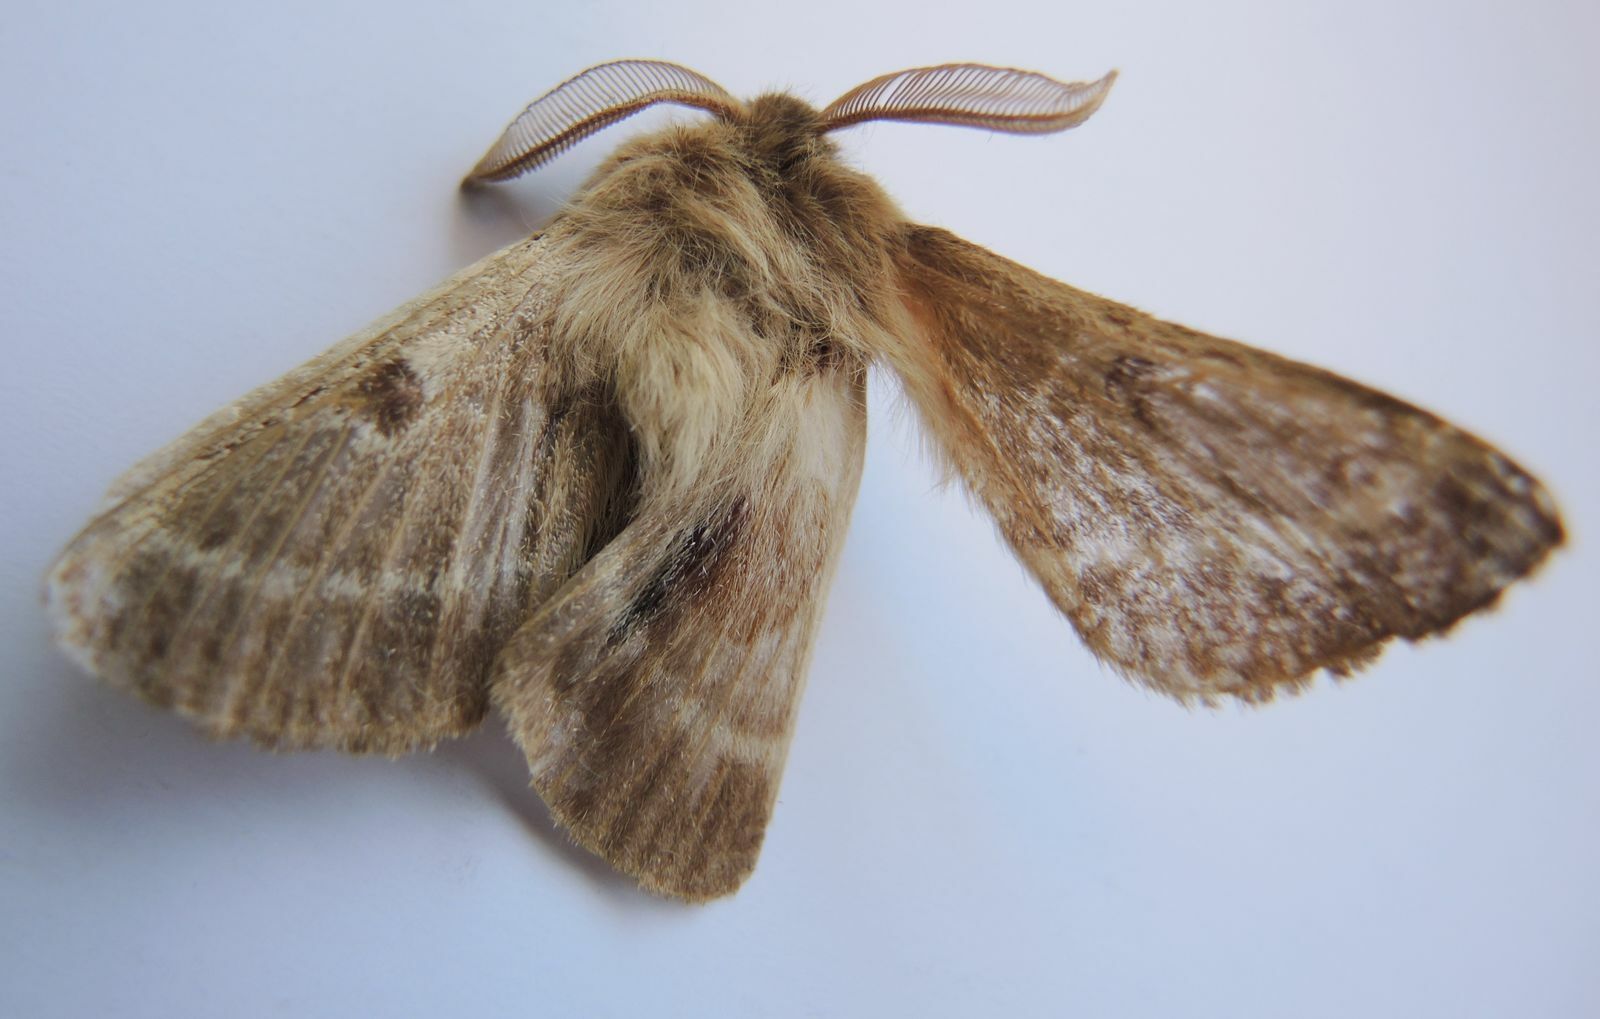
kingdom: Animalia
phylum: Arthropoda
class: Insecta
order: Lepidoptera
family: Brahmaeidae
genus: Lemonia
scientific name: Lemonia balcanica
